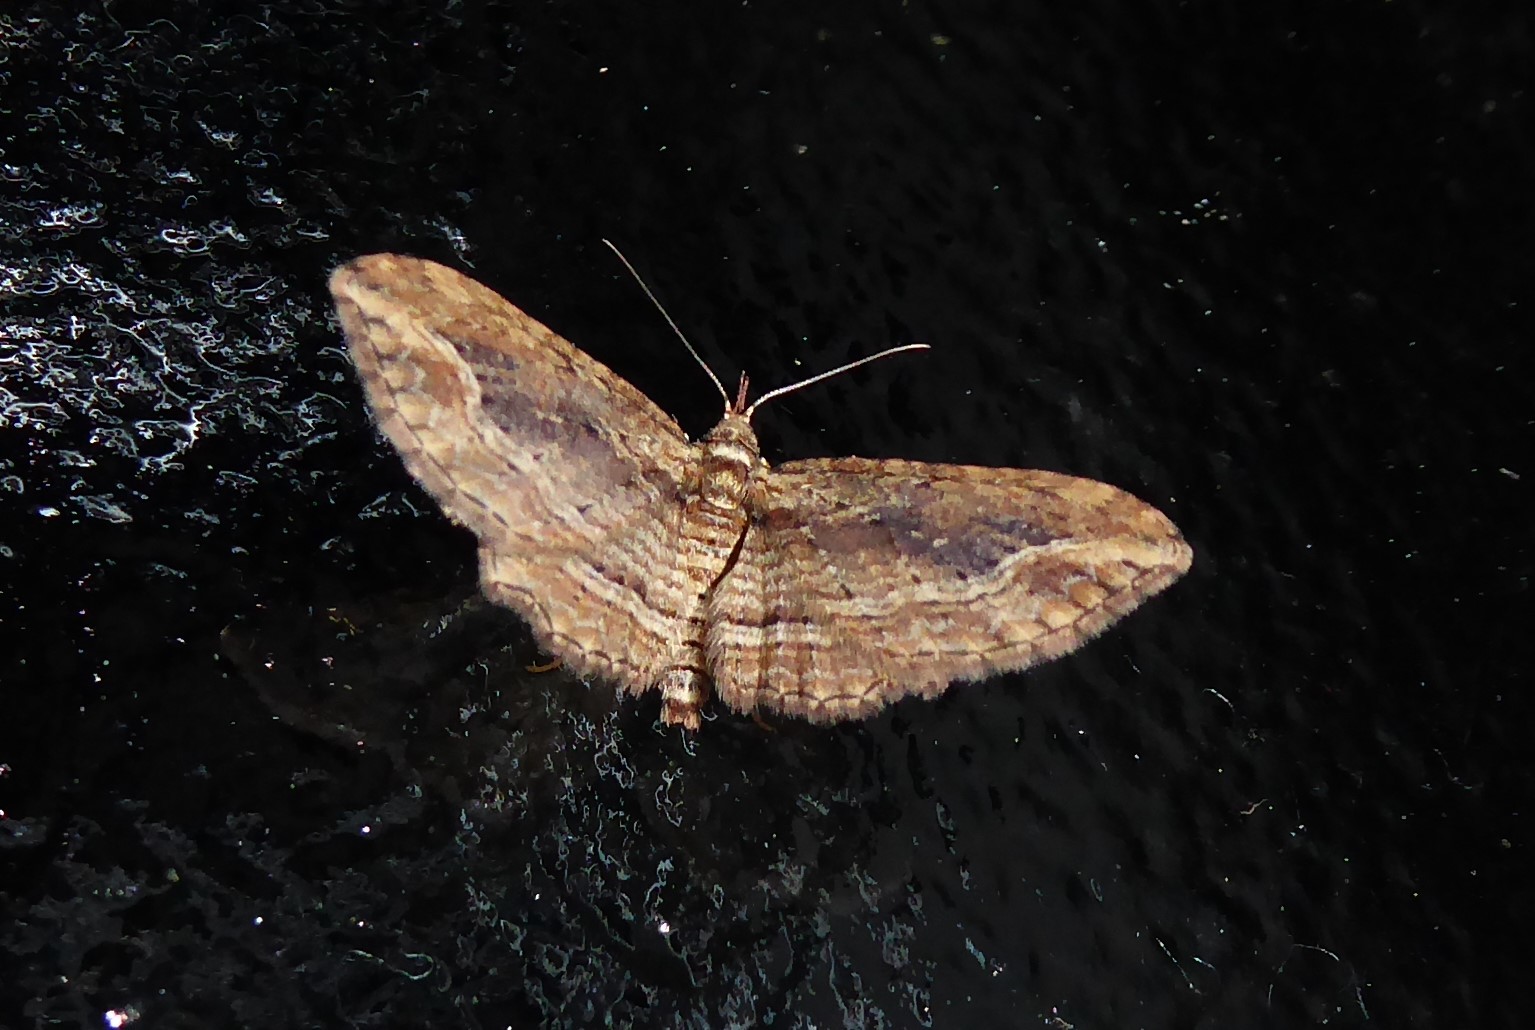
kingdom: Animalia
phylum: Arthropoda
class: Insecta
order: Lepidoptera
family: Geometridae
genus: Chloroclystis
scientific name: Chloroclystis filata
